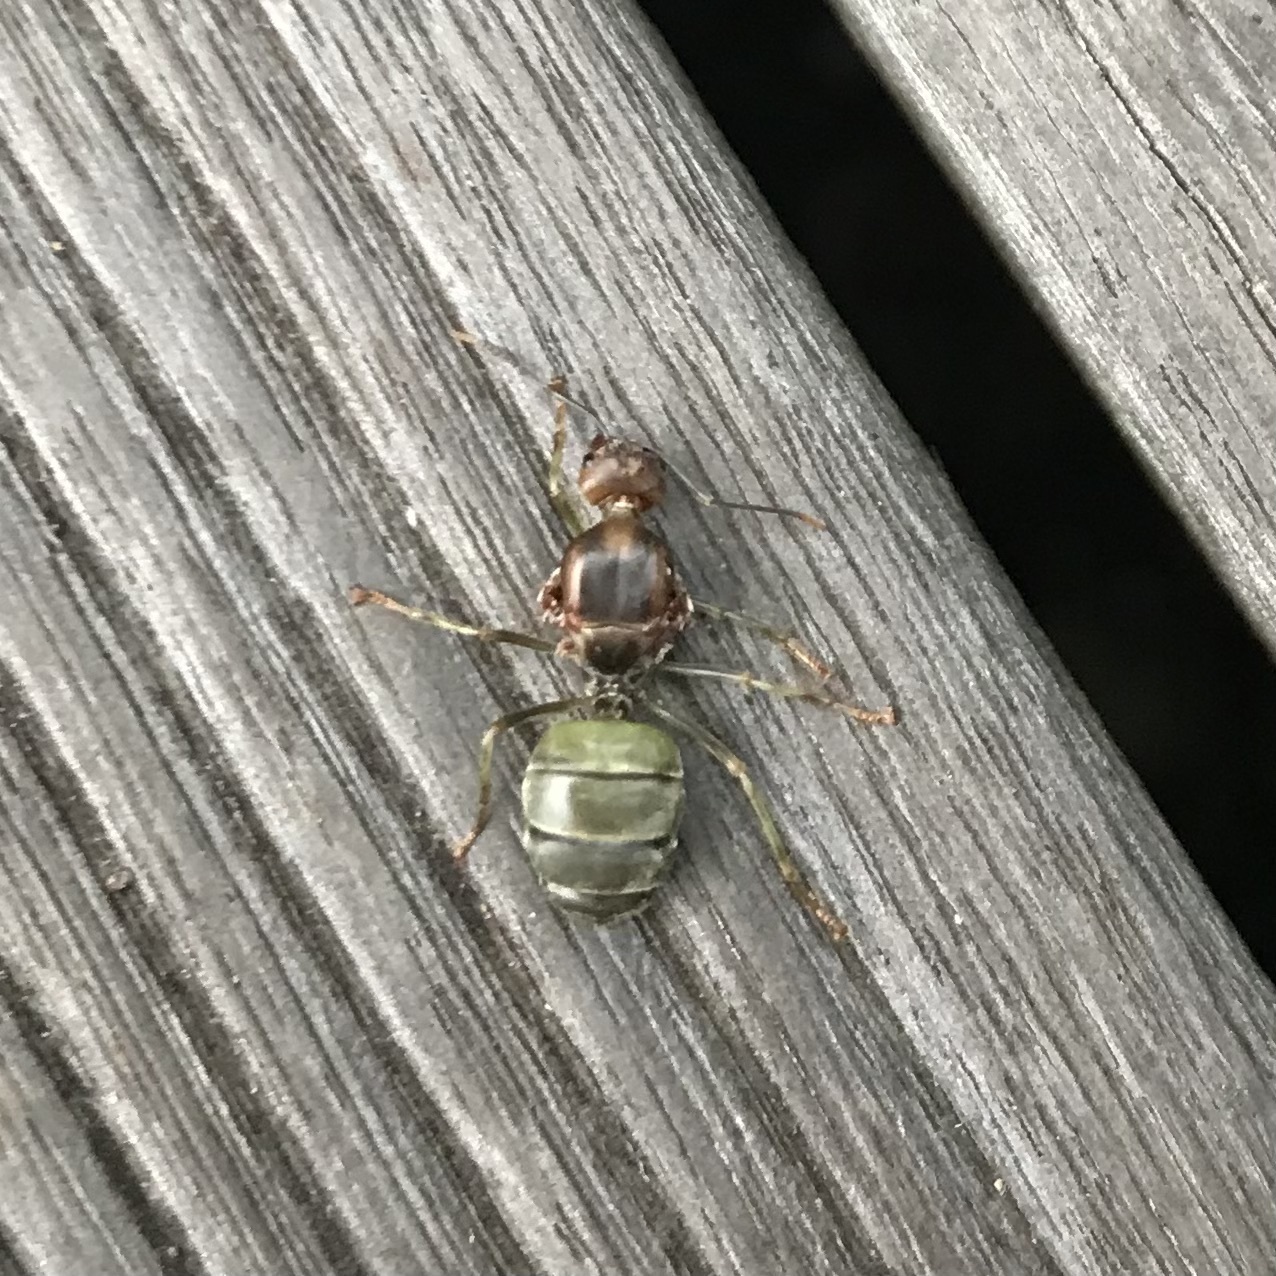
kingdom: Animalia
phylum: Arthropoda
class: Insecta
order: Hymenoptera
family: Formicidae
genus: Oecophylla
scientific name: Oecophylla smaragdina
